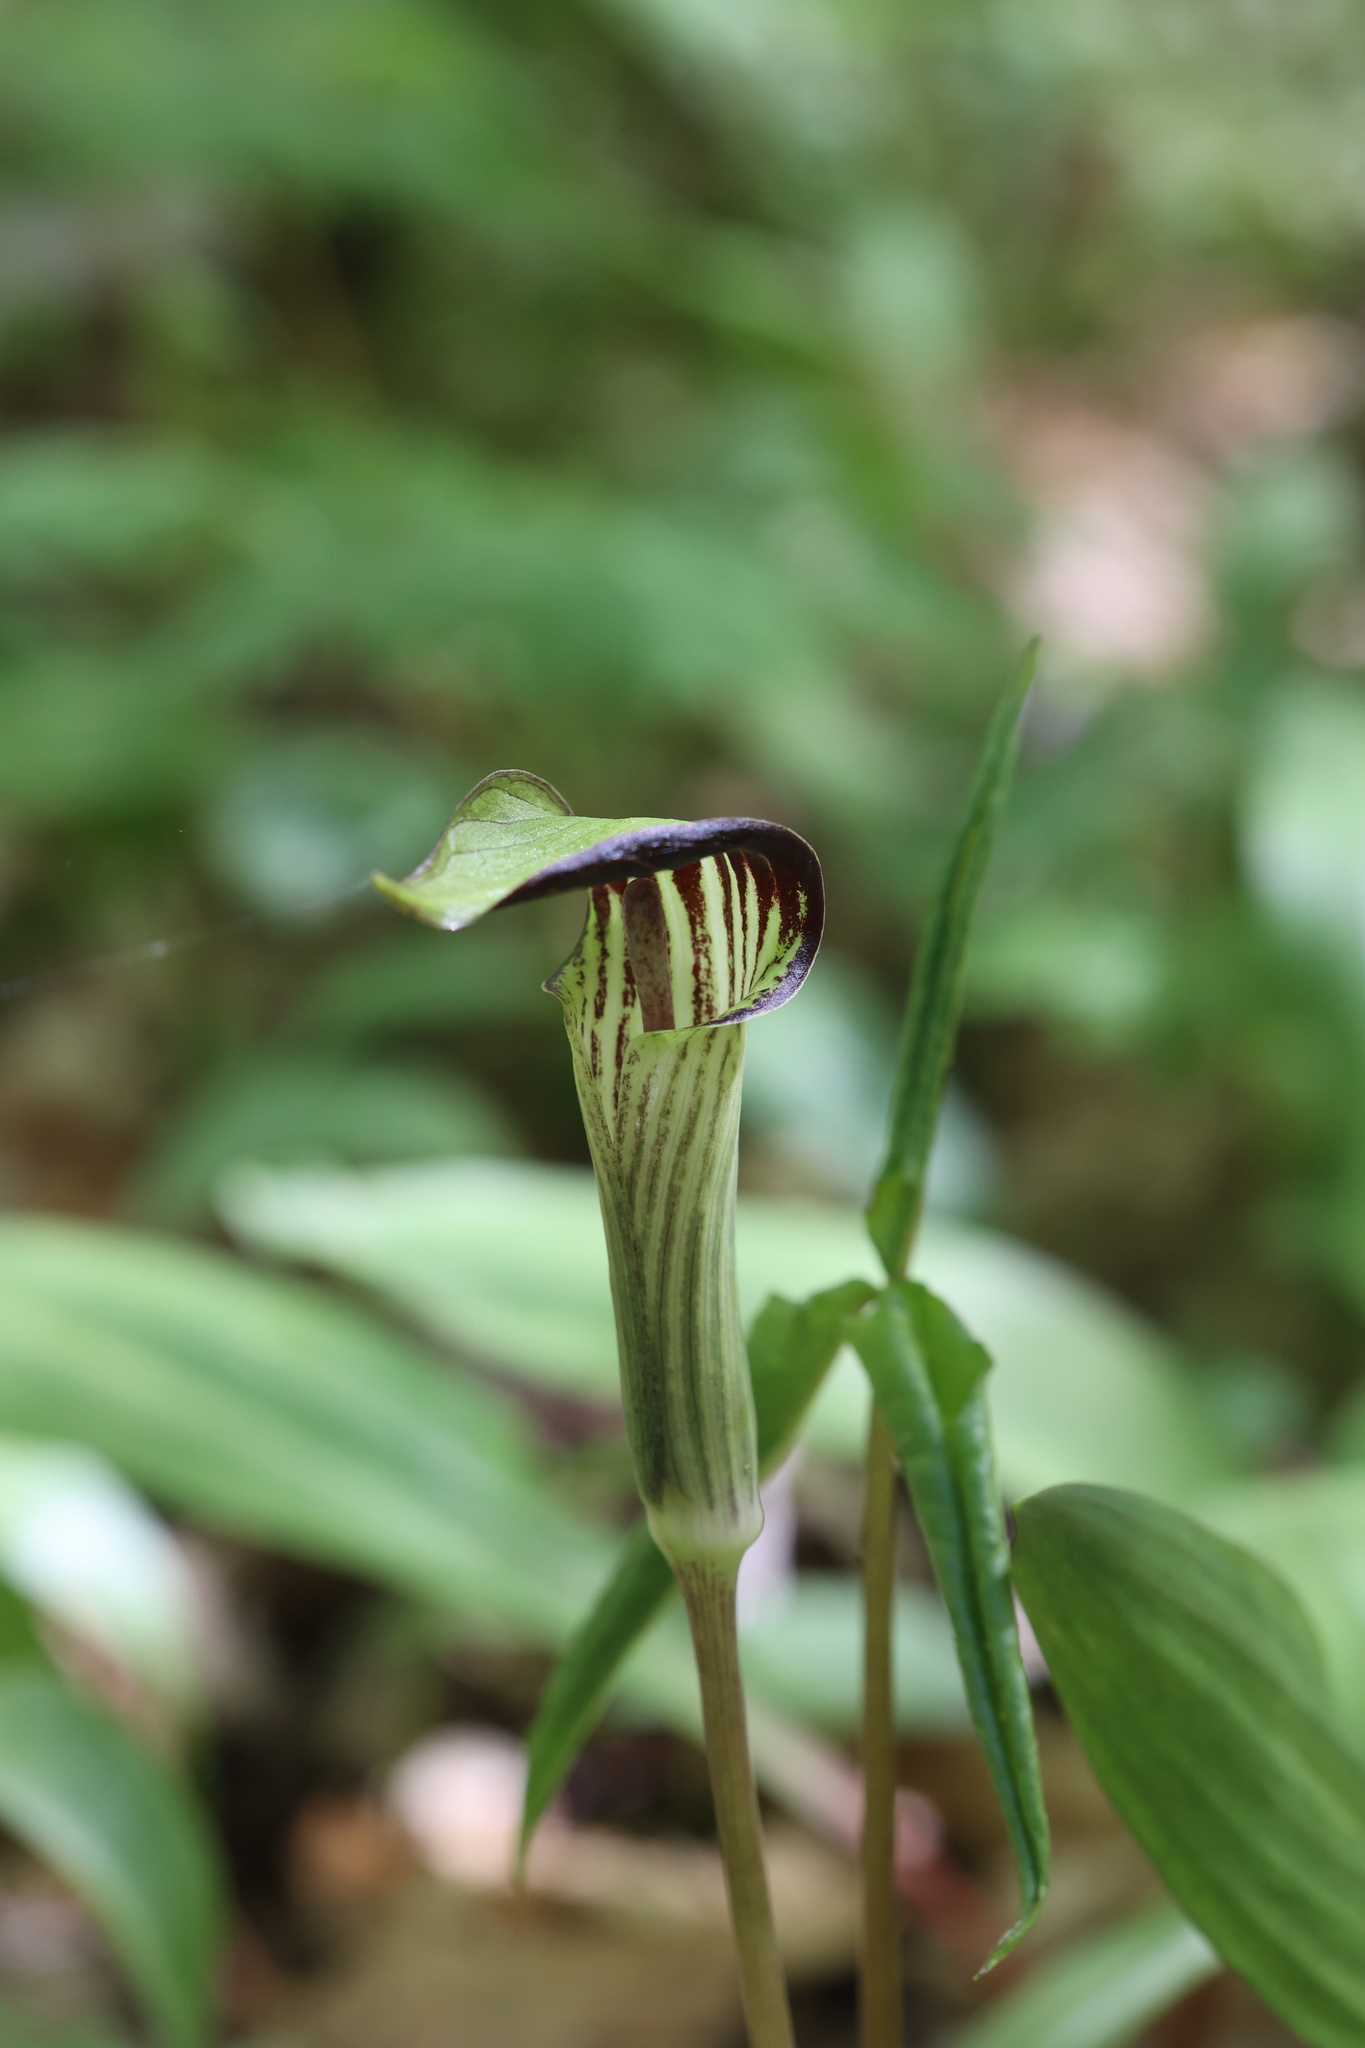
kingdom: Plantae
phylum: Tracheophyta
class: Liliopsida
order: Alismatales
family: Araceae
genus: Arisaema
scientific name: Arisaema triphyllum
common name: Jack-in-the-pulpit
